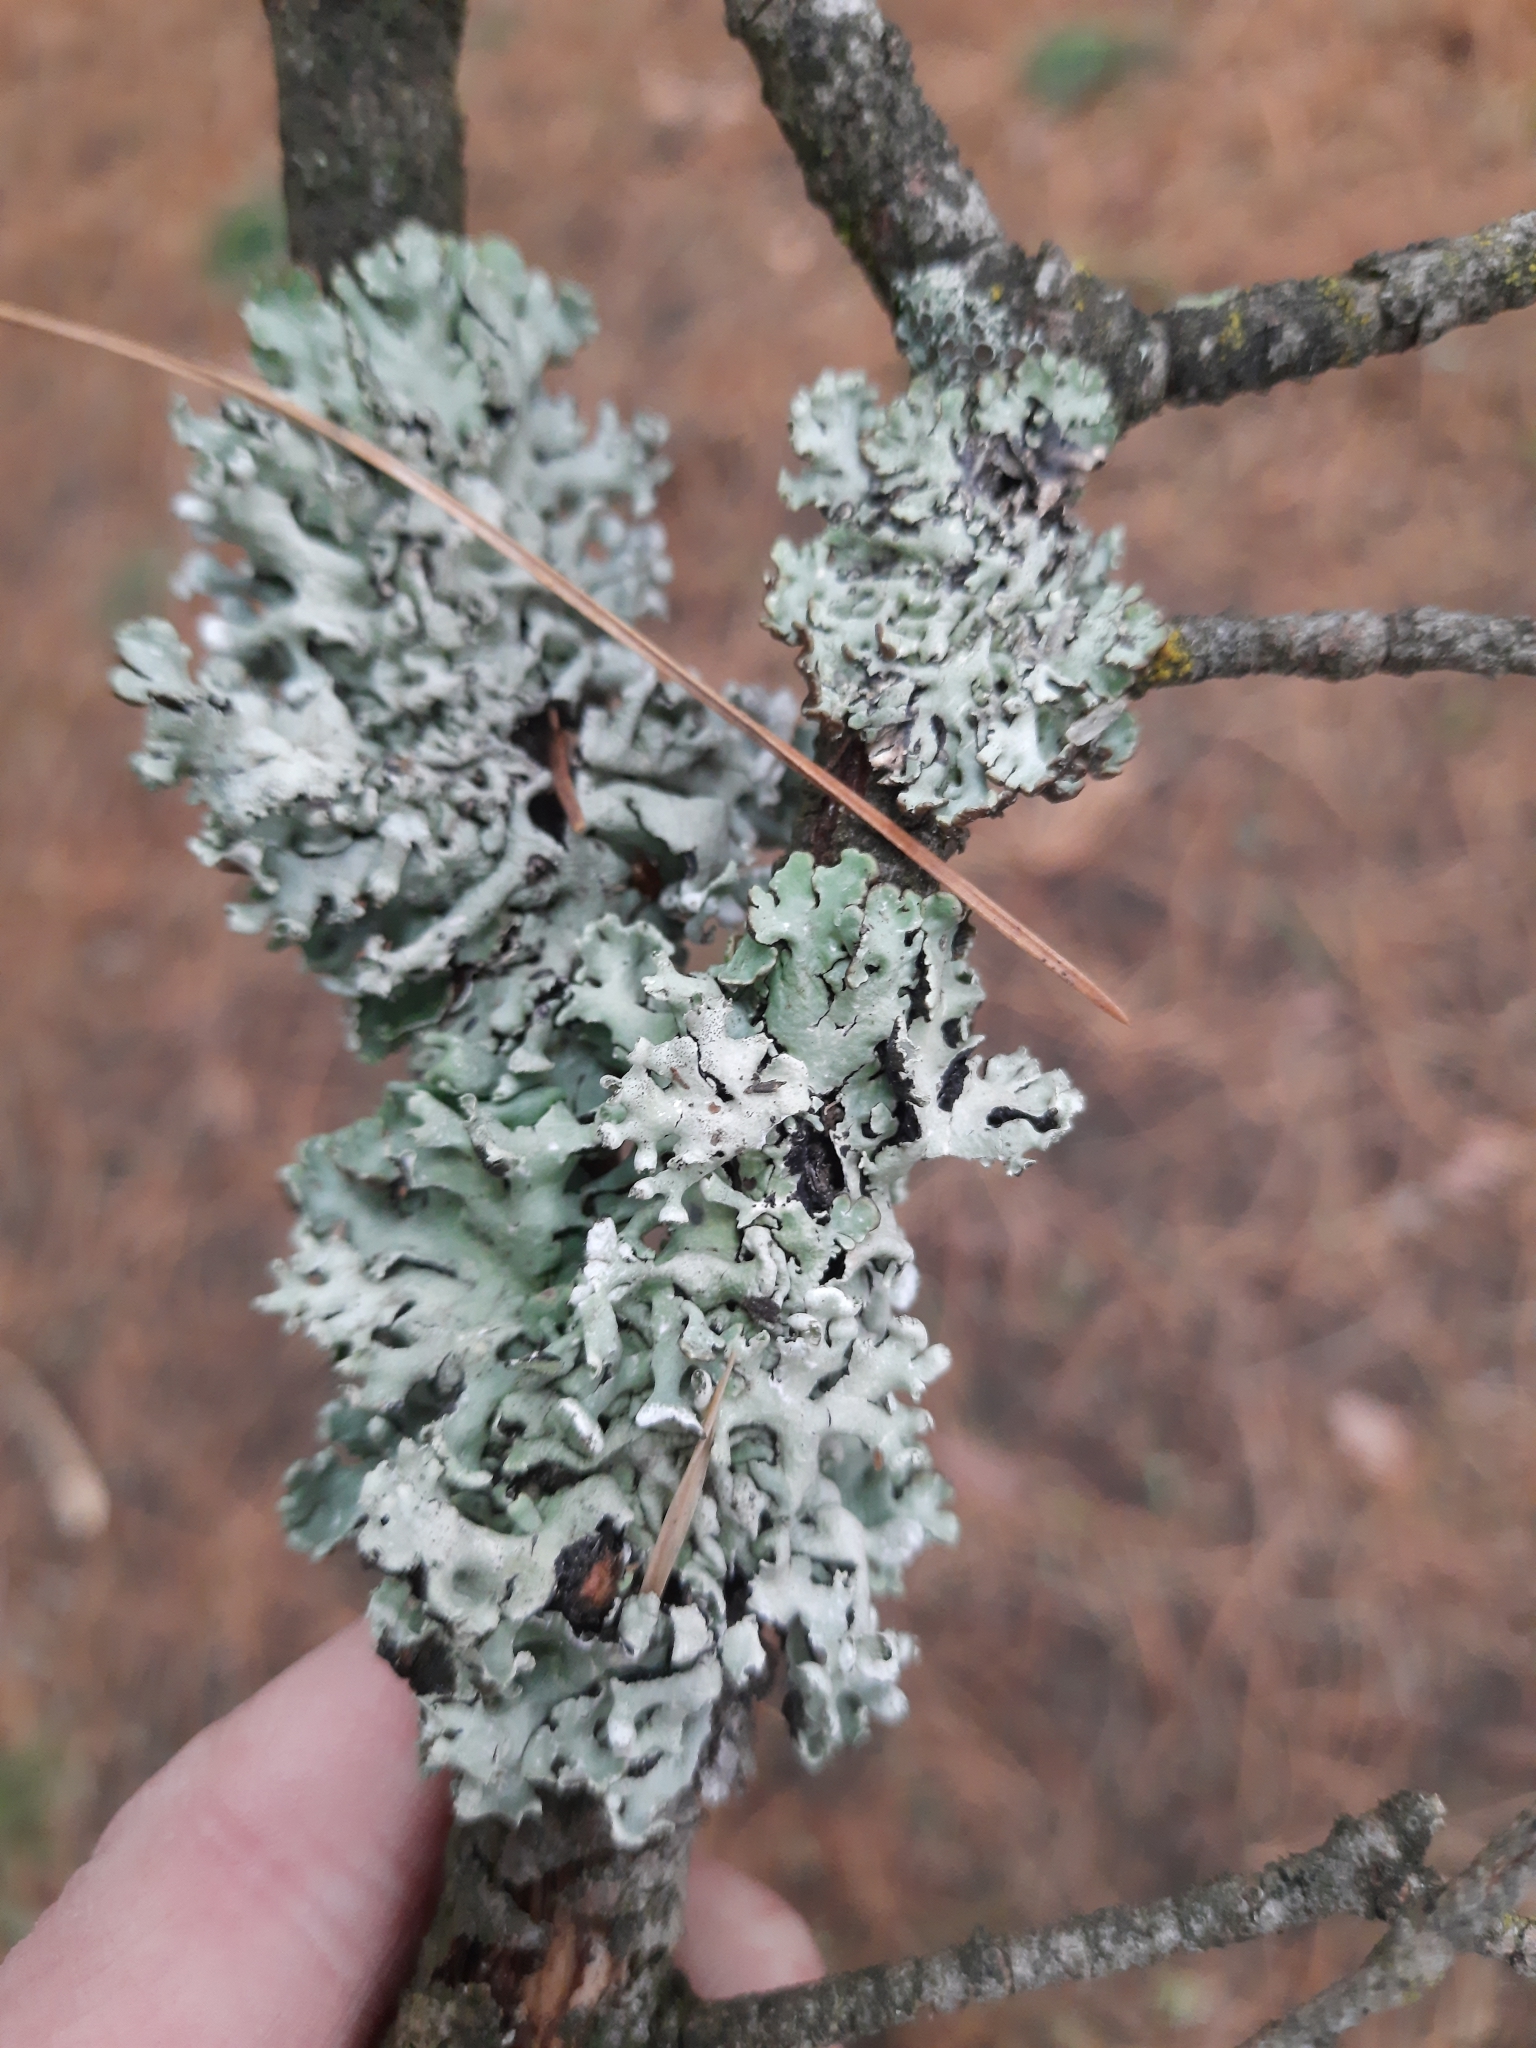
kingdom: Fungi
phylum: Ascomycota
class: Lecanoromycetes
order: Lecanorales
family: Parmeliaceae
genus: Hypogymnia
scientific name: Hypogymnia physodes
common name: Dark crottle
